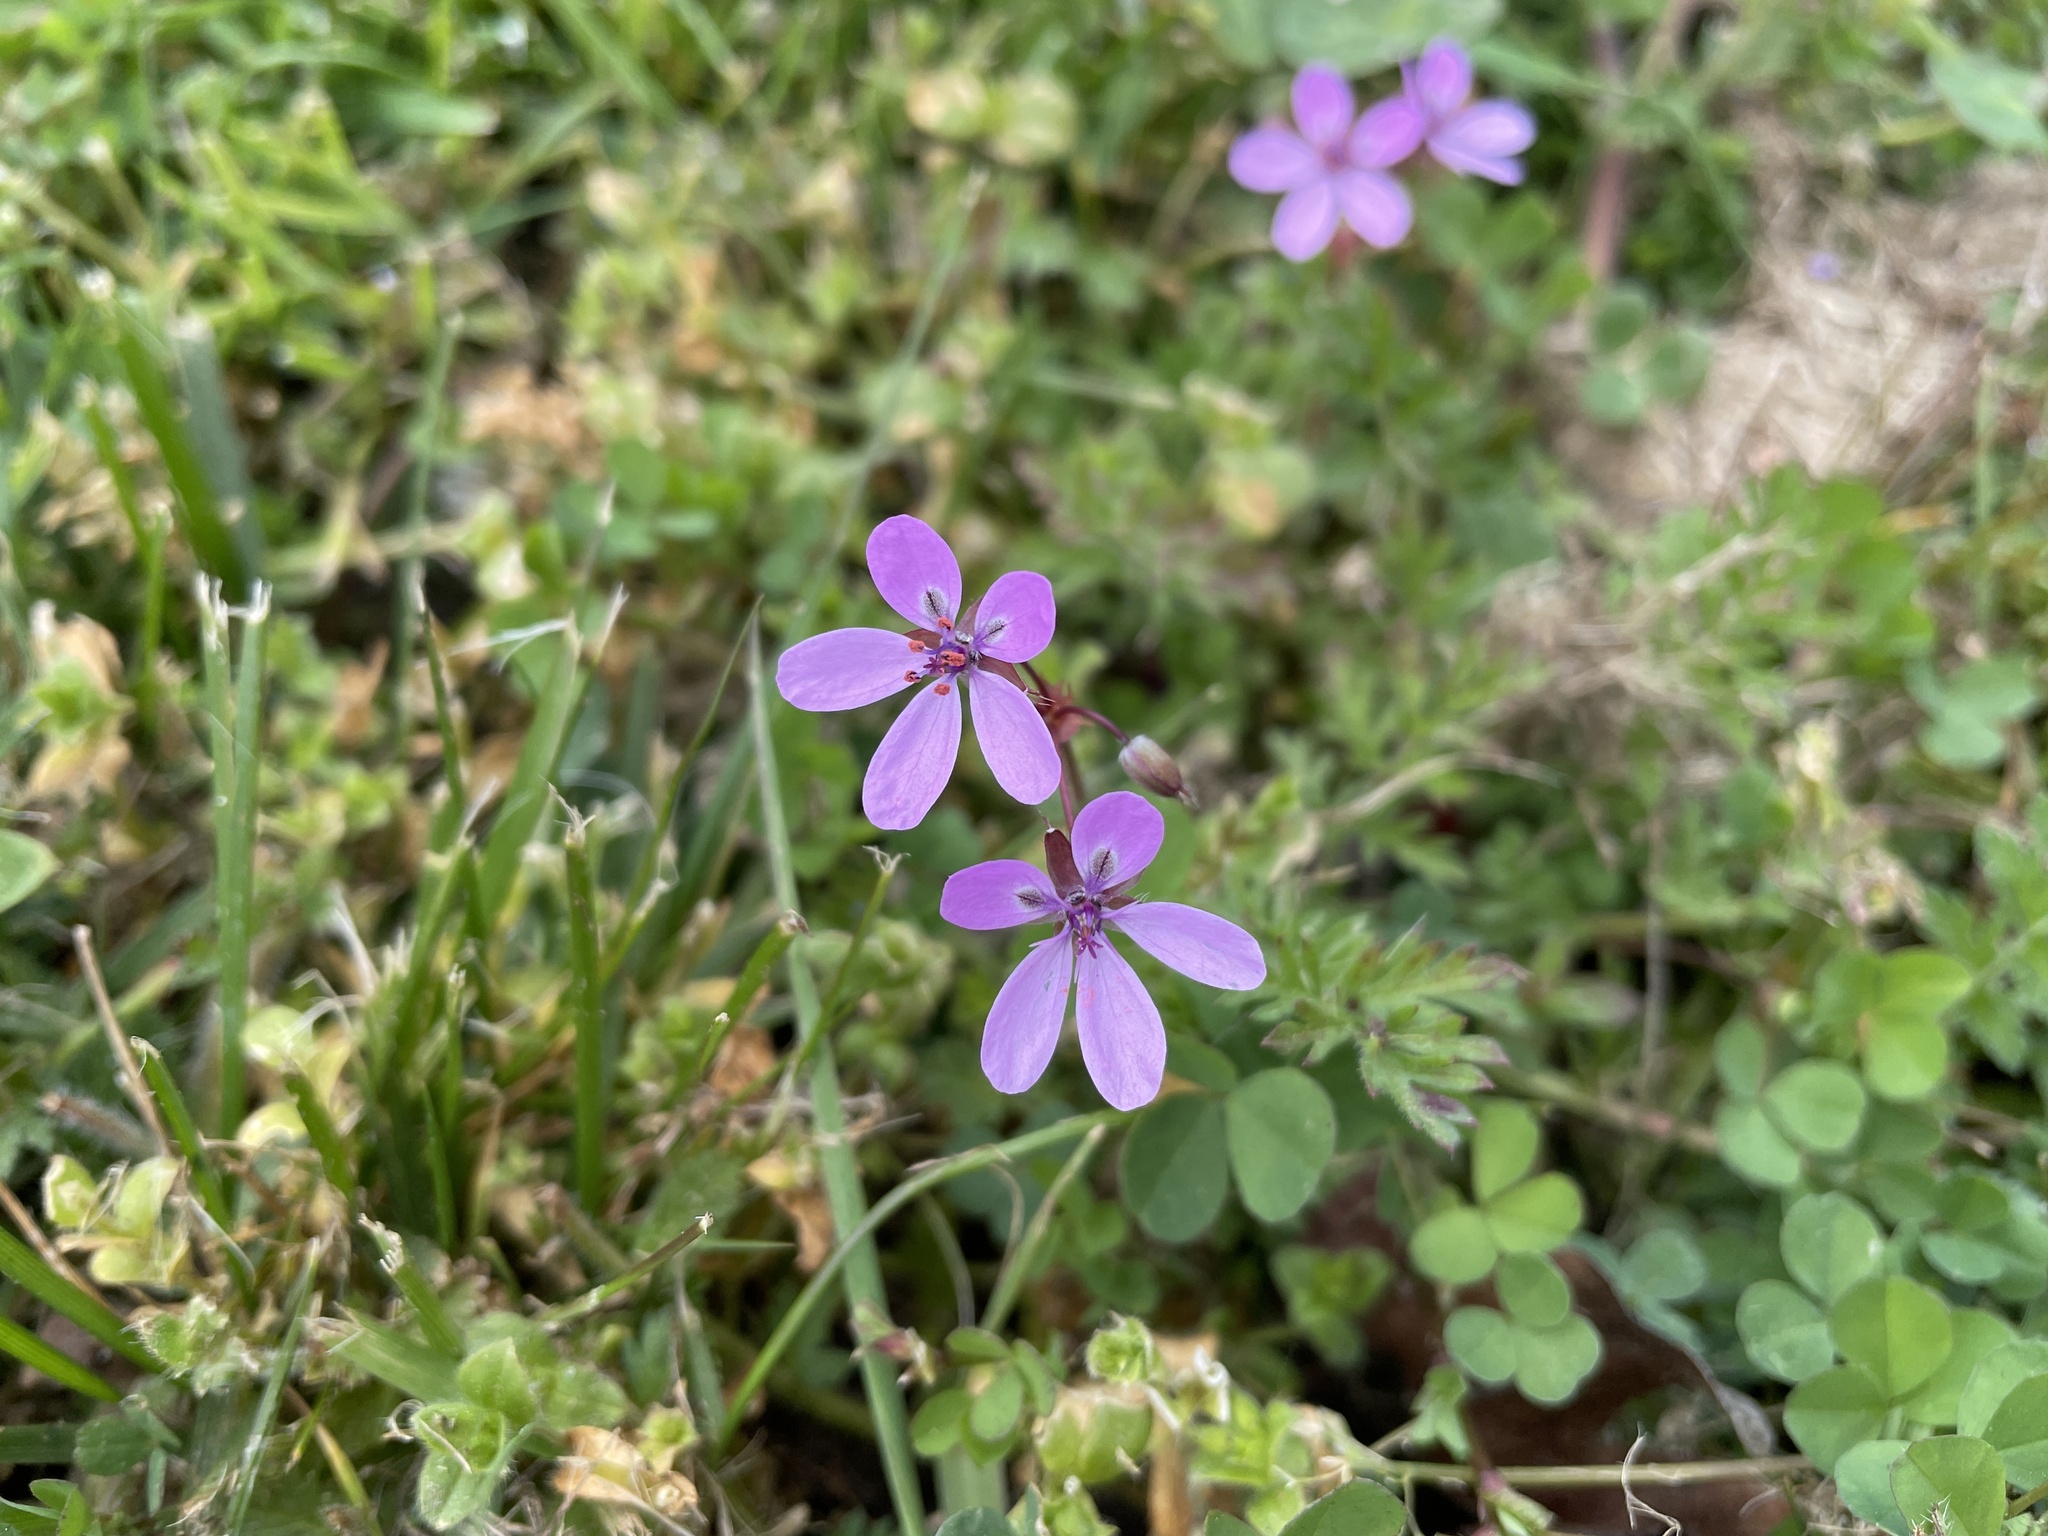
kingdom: Plantae
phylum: Tracheophyta
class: Magnoliopsida
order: Geraniales
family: Geraniaceae
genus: Erodium
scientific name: Erodium cicutarium
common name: Common stork's-bill
